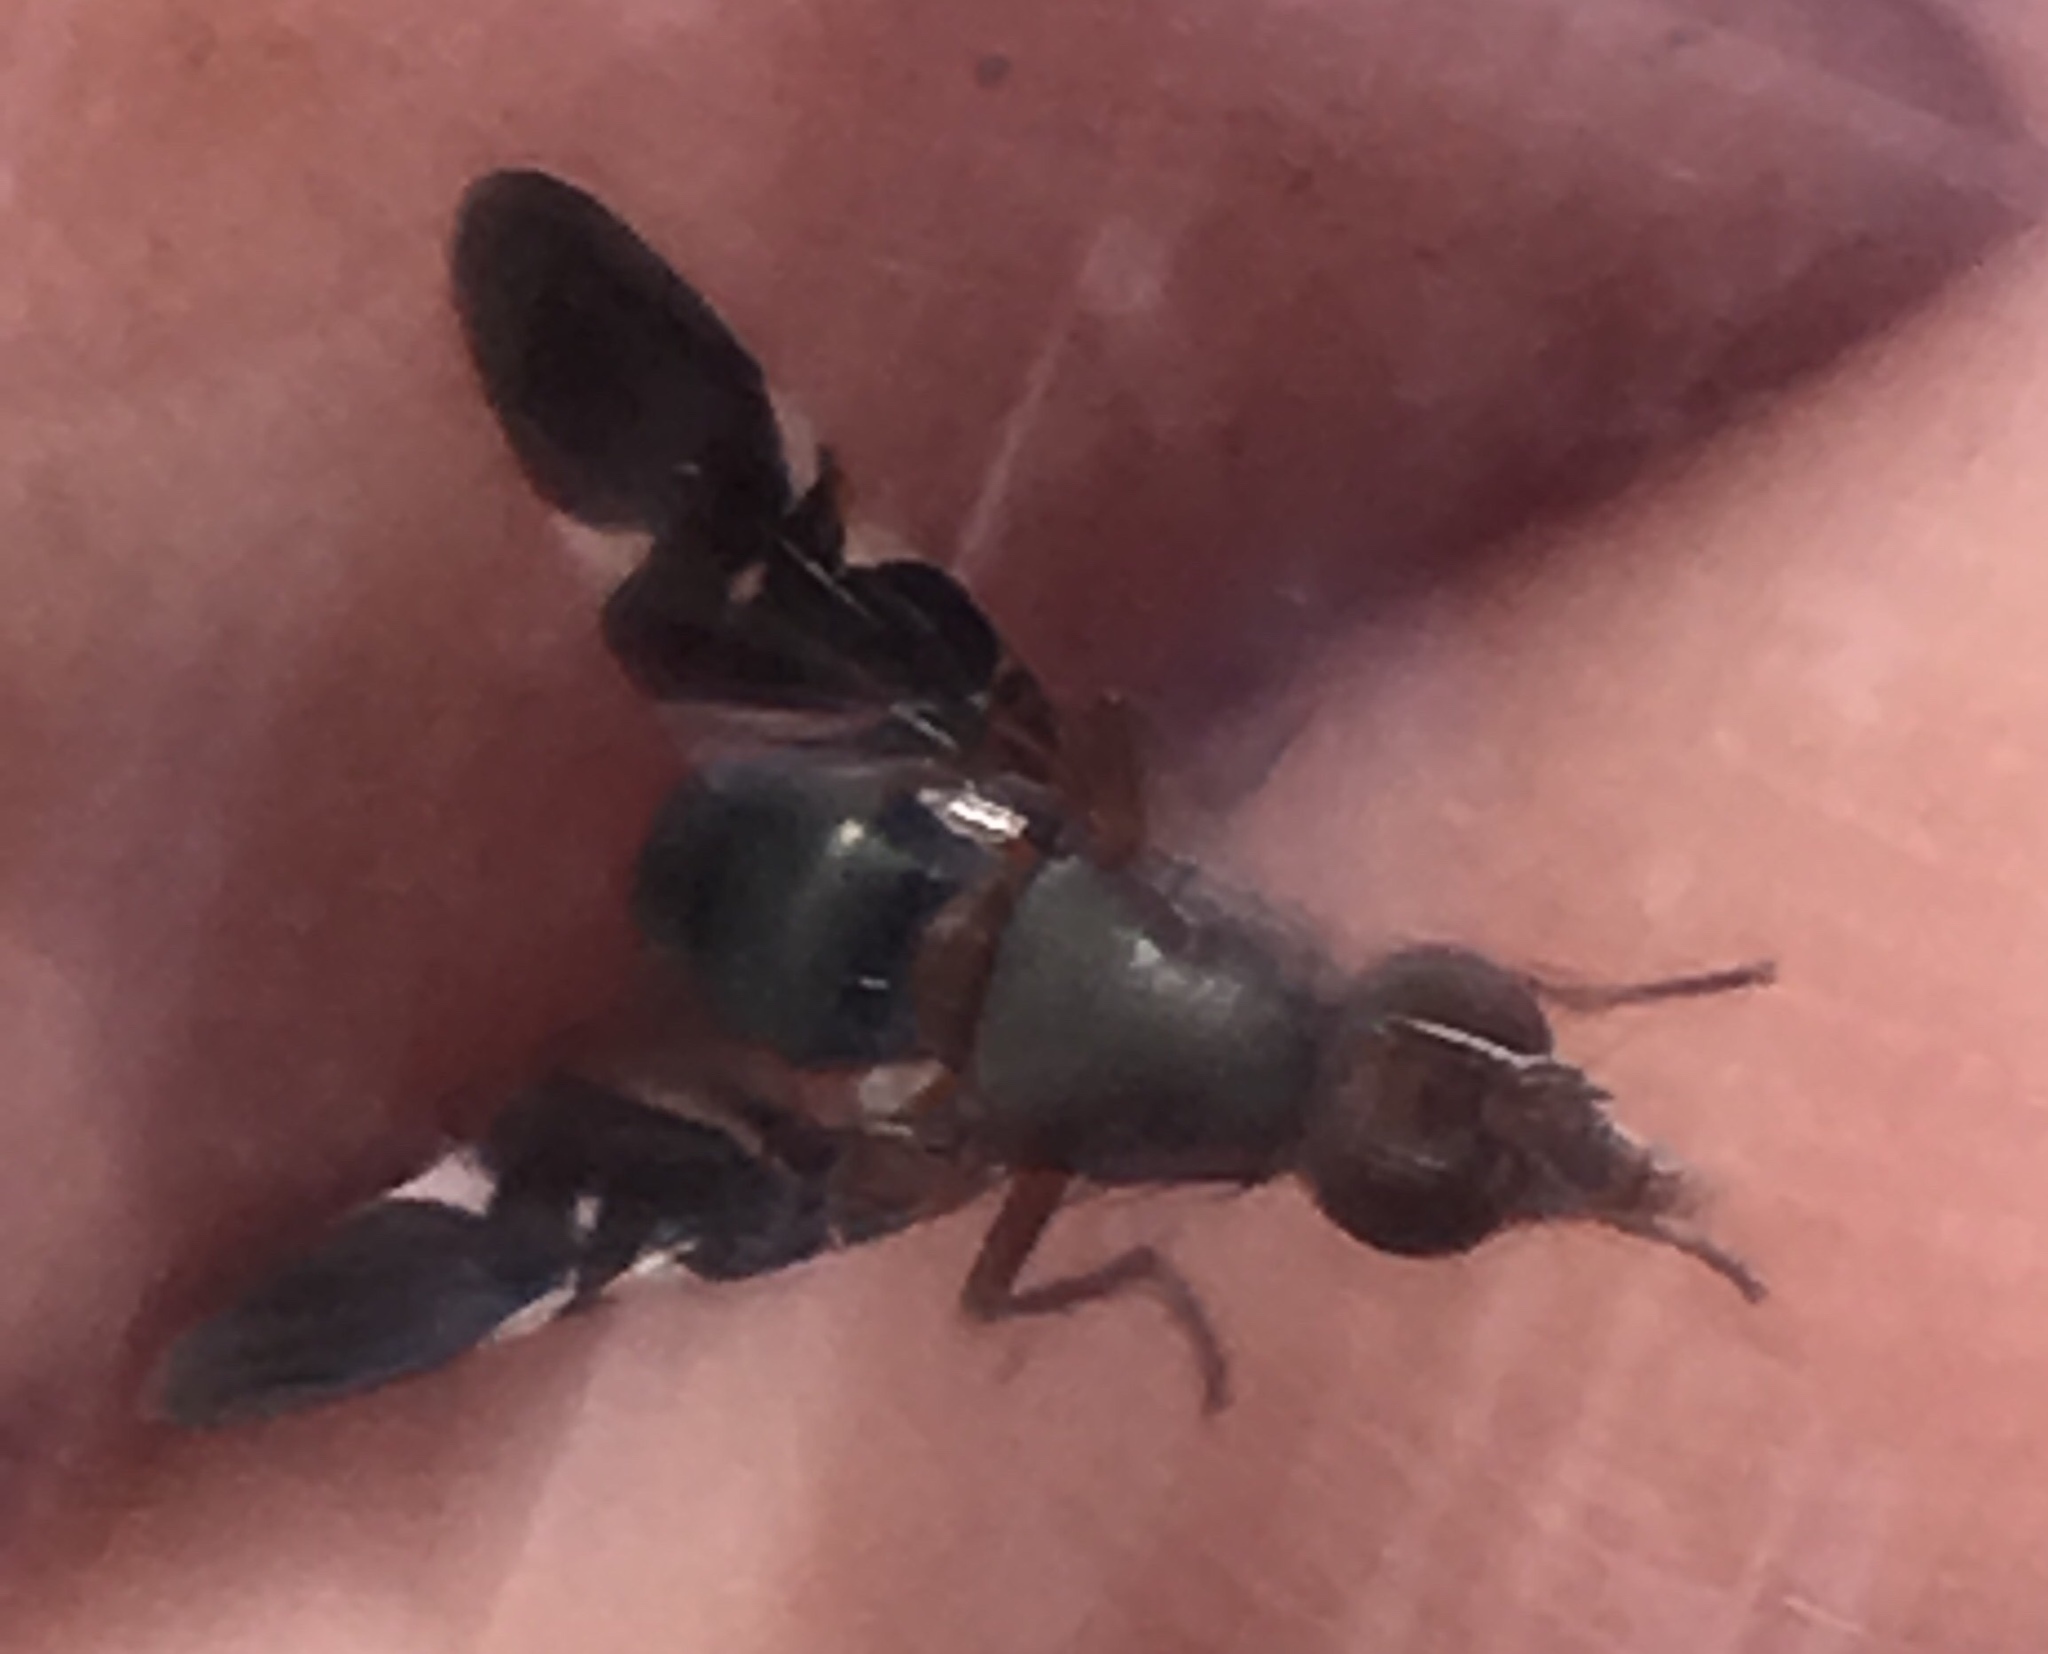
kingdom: Animalia
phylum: Arthropoda
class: Insecta
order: Diptera
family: Ulidiidae
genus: Delphinia
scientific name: Delphinia picta
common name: Common picture-winged fly
